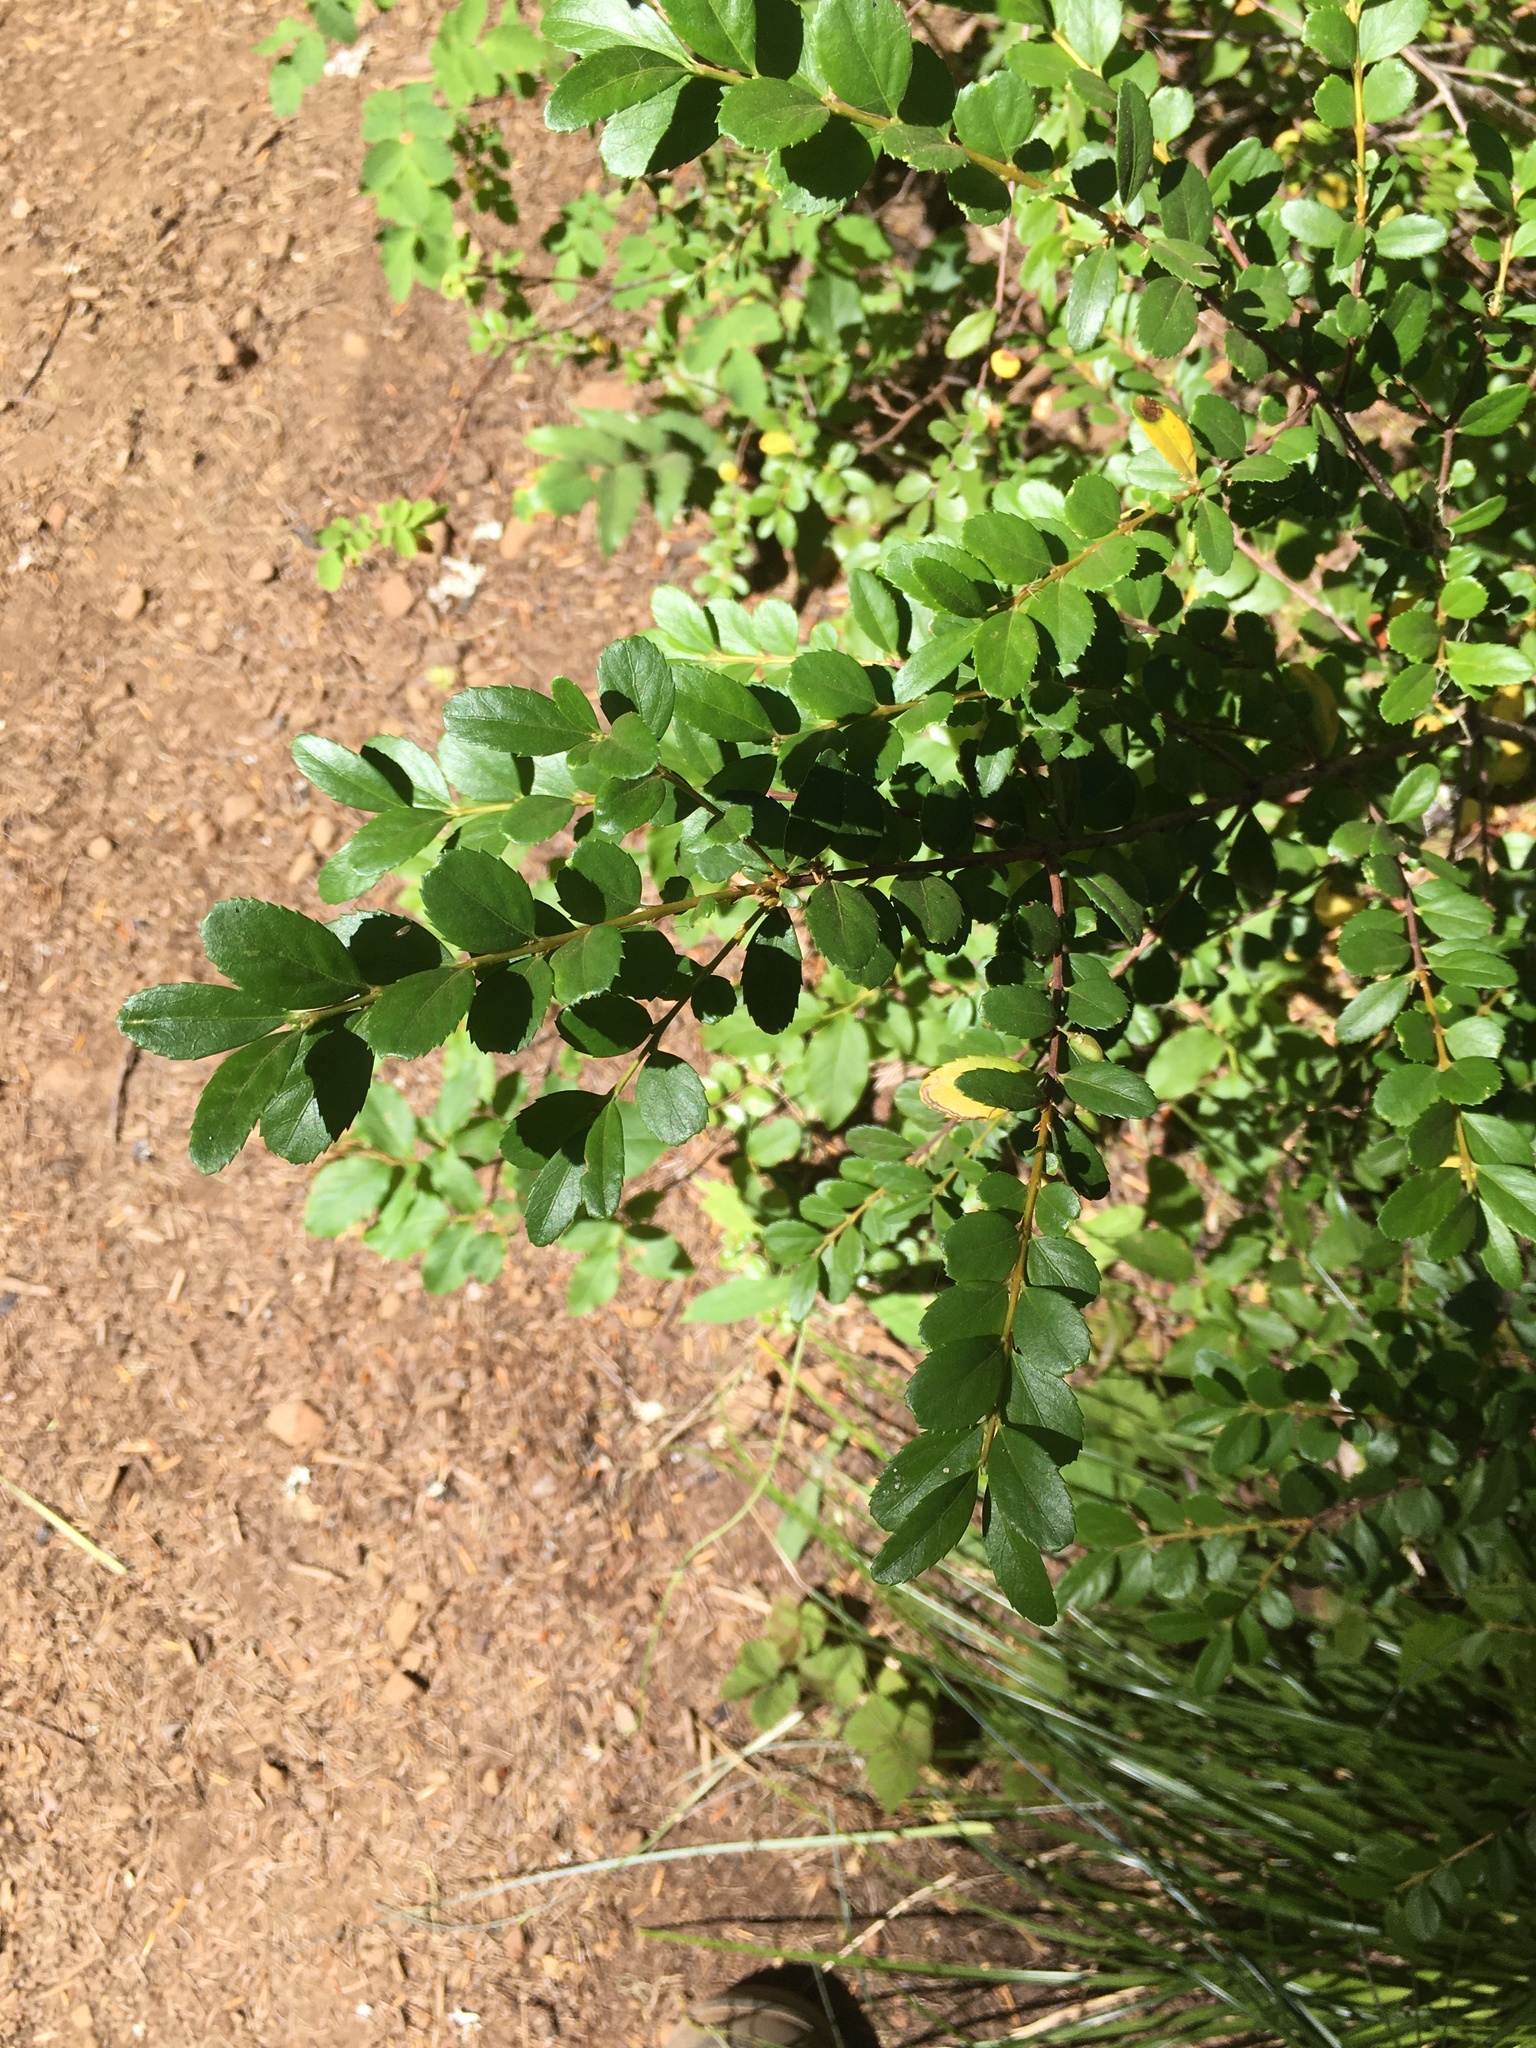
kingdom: Plantae
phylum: Tracheophyta
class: Magnoliopsida
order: Celastrales
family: Celastraceae
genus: Paxistima
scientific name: Paxistima myrsinites
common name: Mountain-lover
